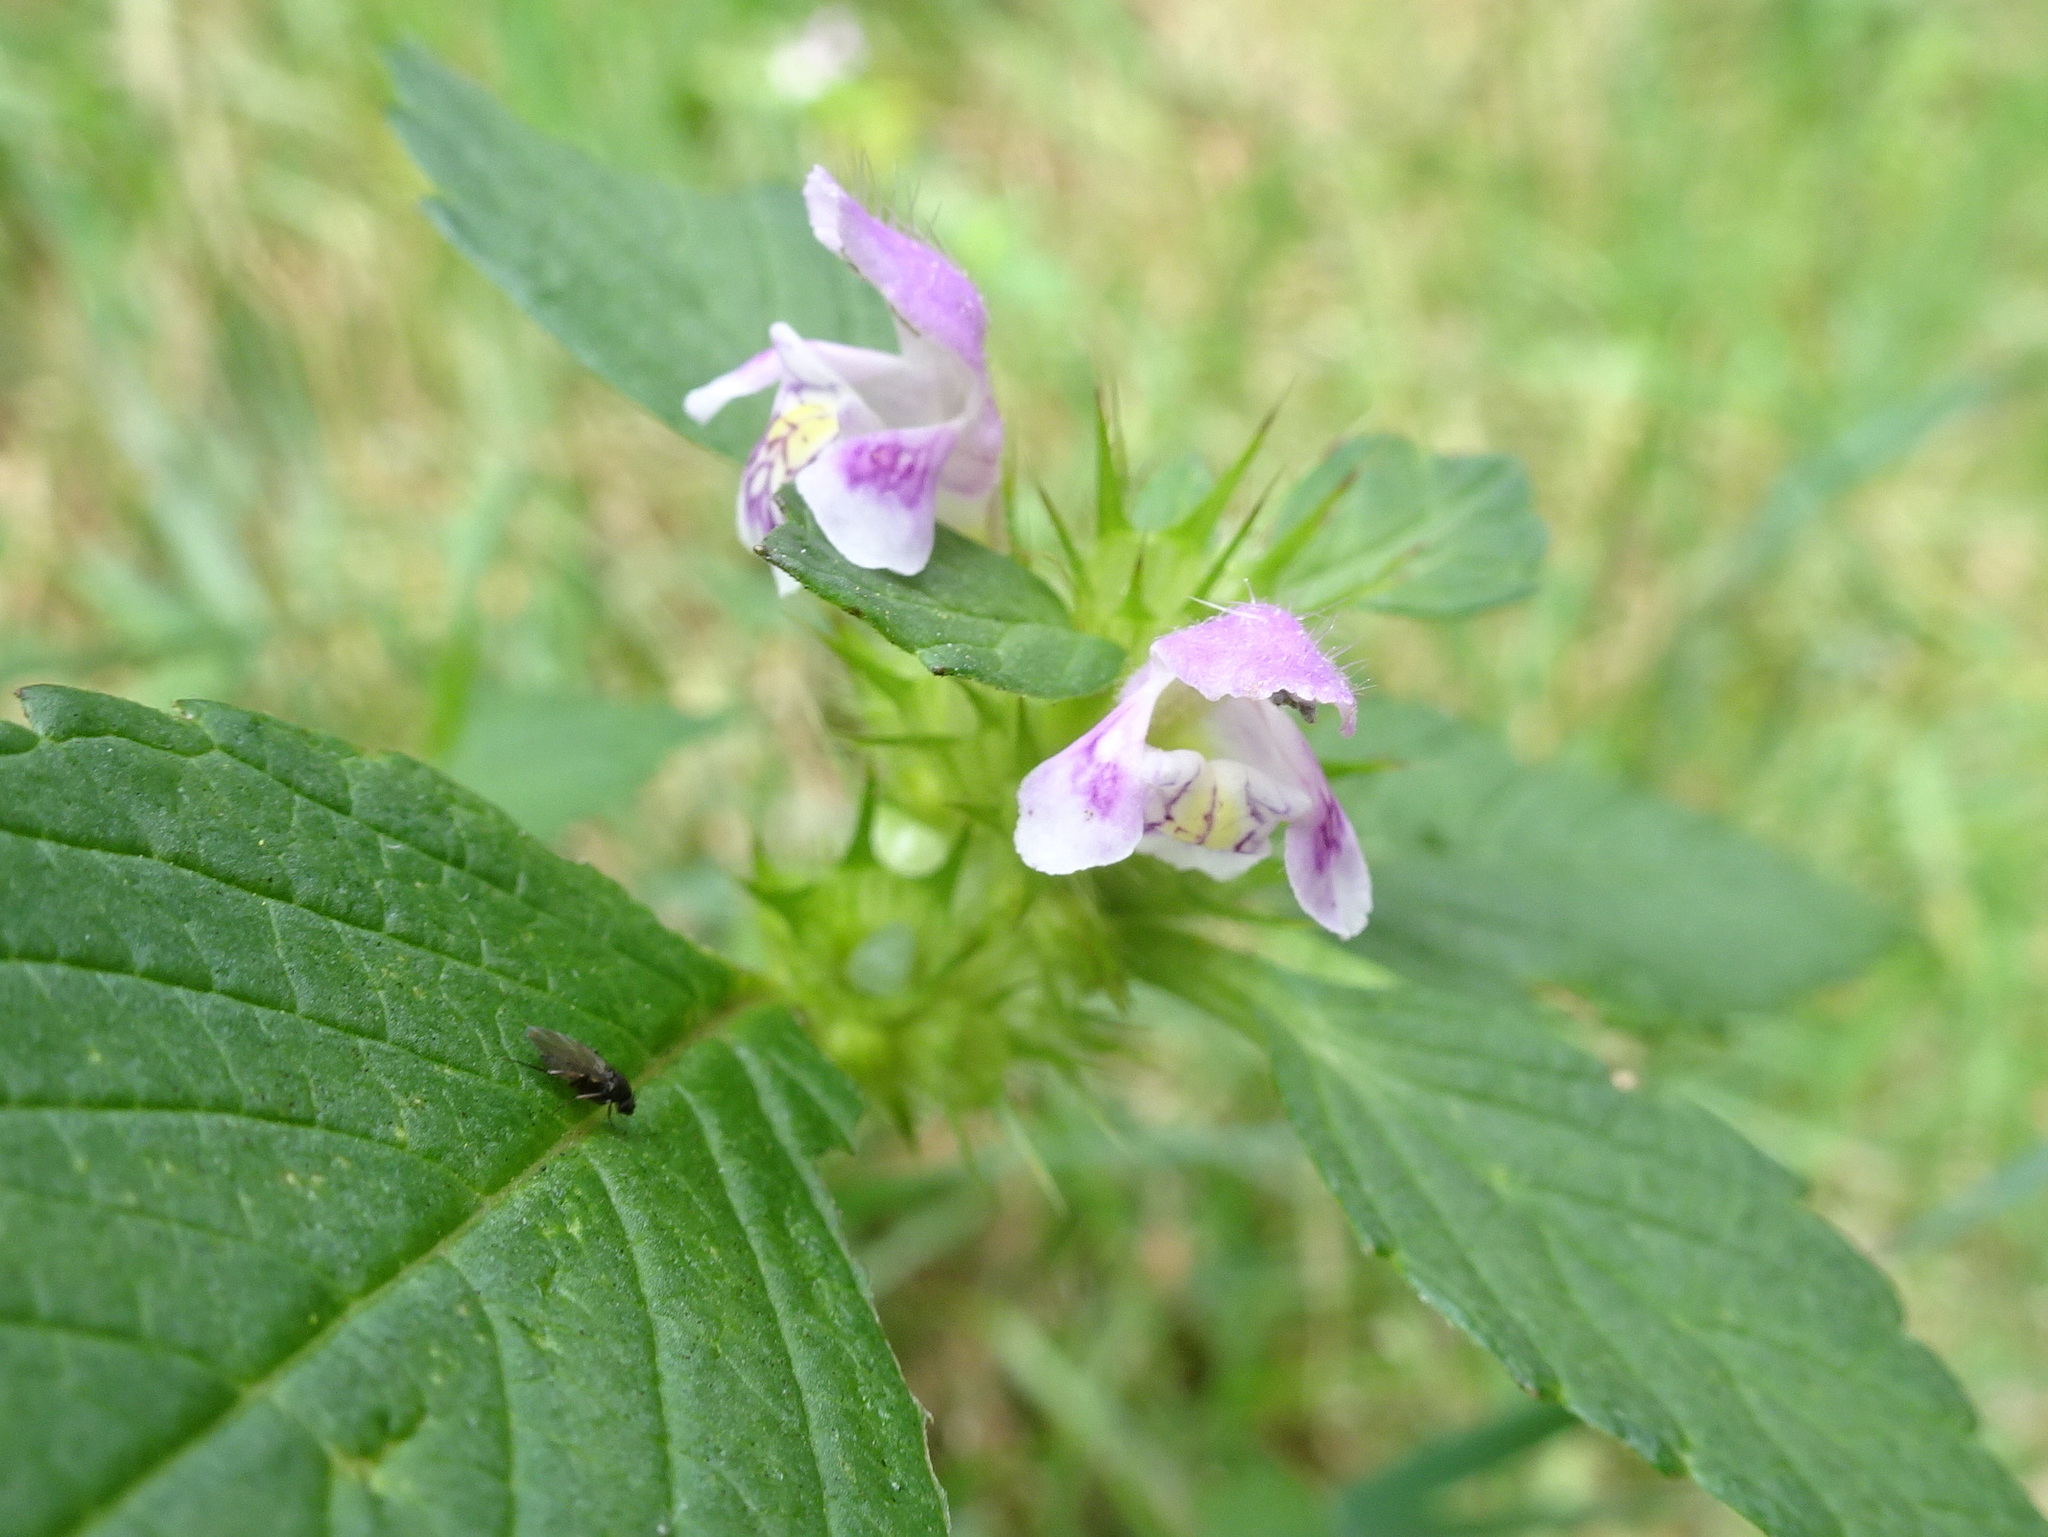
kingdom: Plantae
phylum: Tracheophyta
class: Magnoliopsida
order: Lamiales
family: Lamiaceae
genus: Galeopsis
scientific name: Galeopsis tetrahit
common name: Common hemp-nettle
